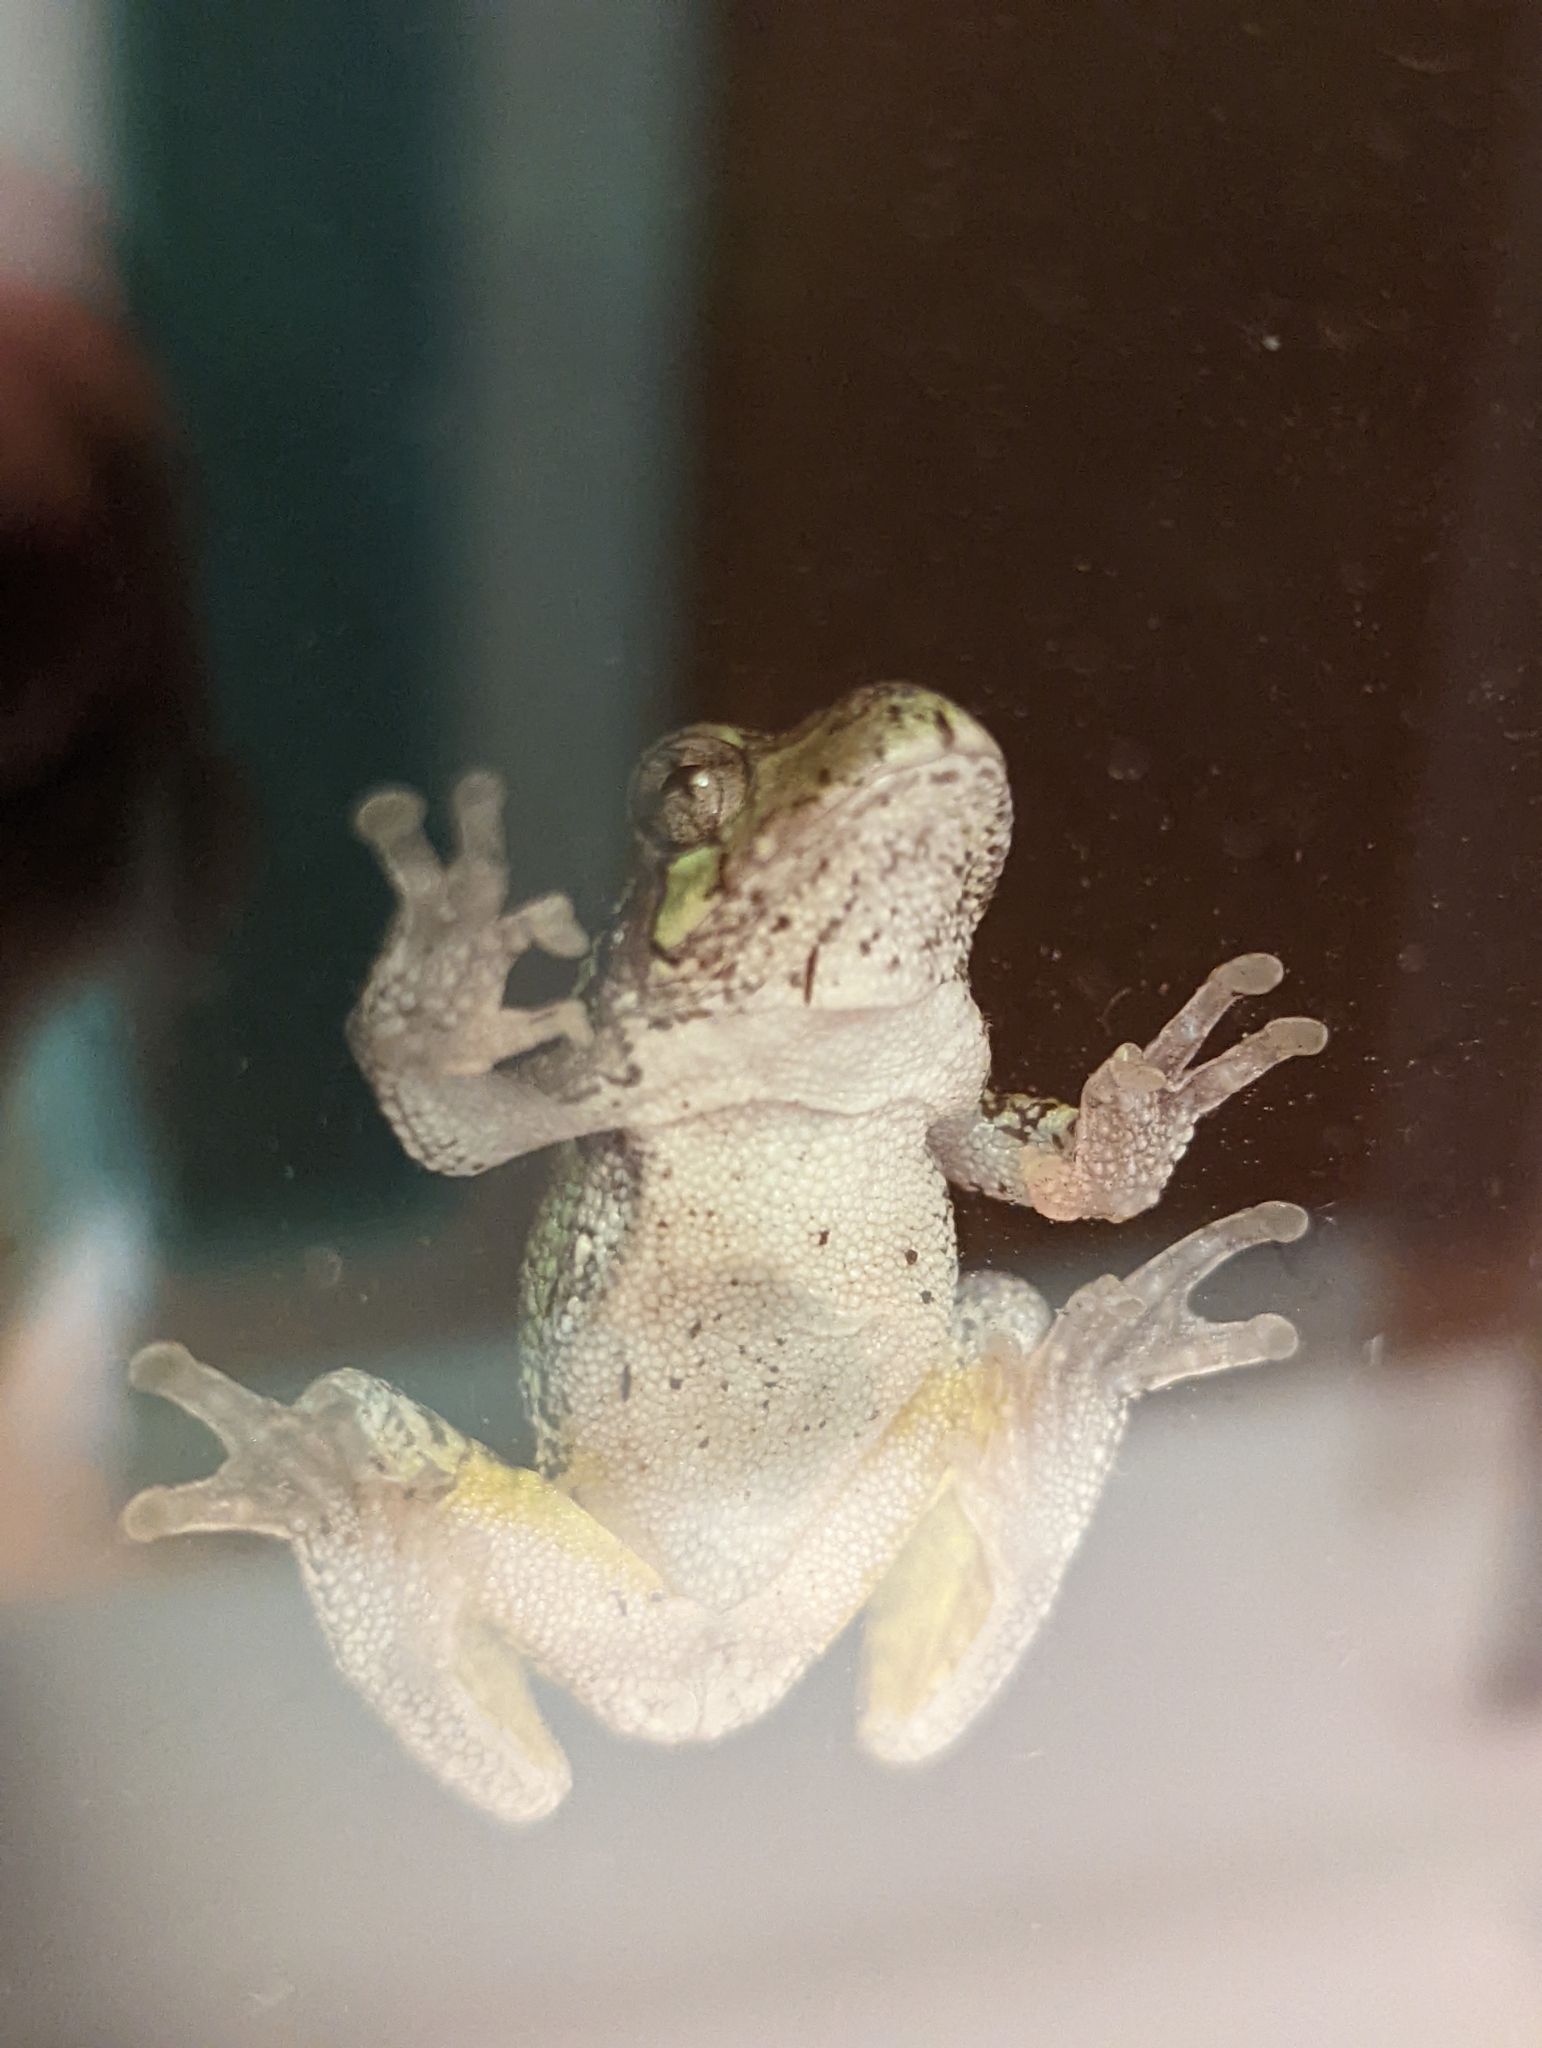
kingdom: Animalia
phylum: Chordata
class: Amphibia
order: Anura
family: Hylidae
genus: Hyla
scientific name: Hyla
